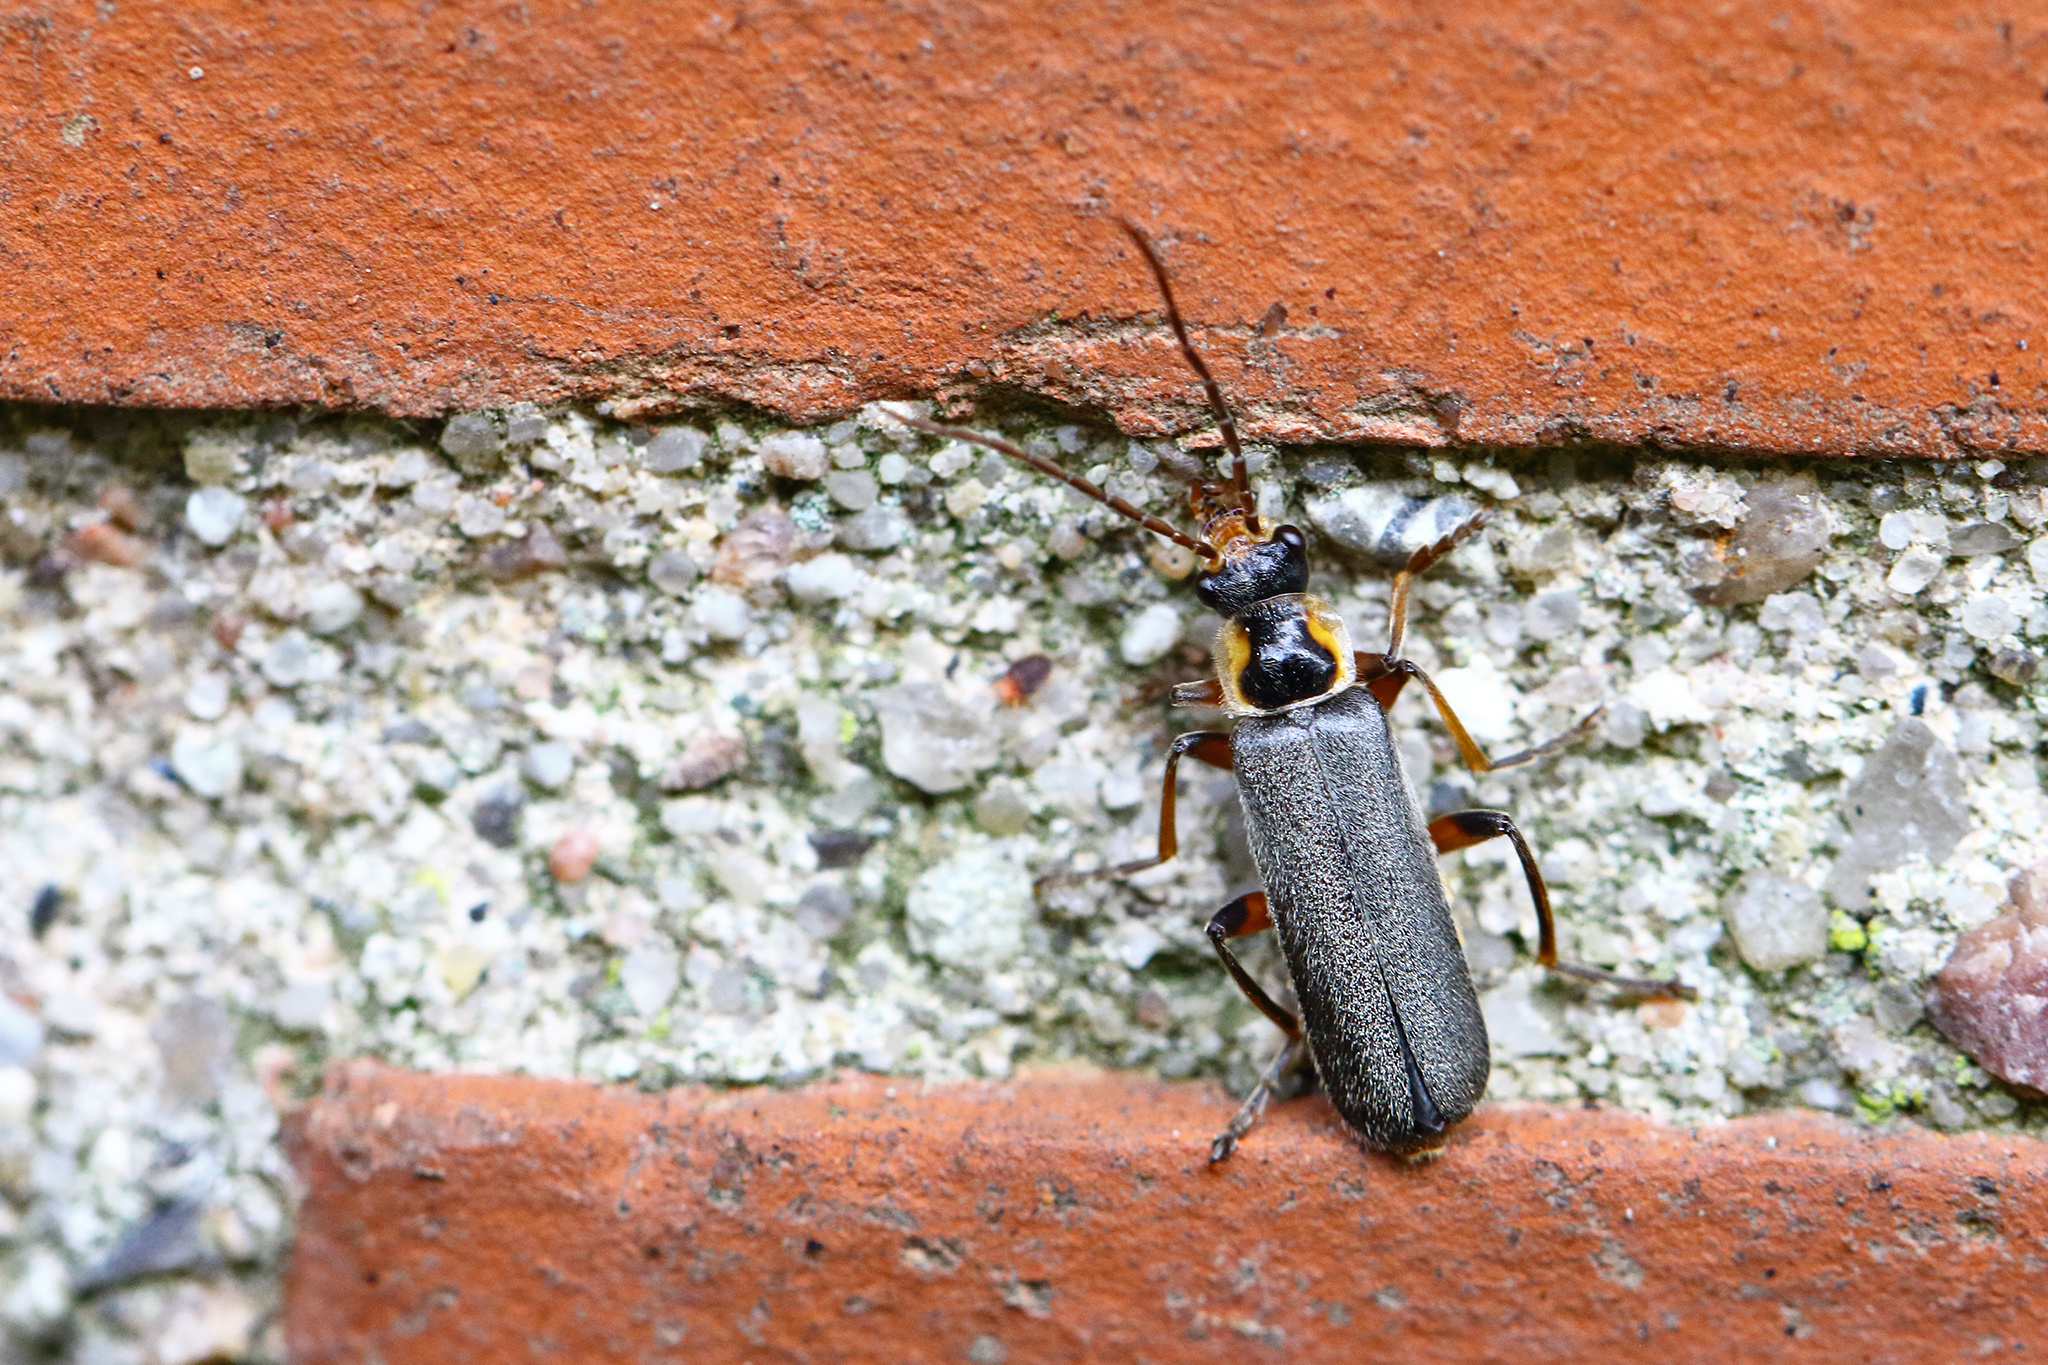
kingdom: Animalia
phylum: Arthropoda
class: Insecta
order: Coleoptera
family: Cantharidae
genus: Cantharis
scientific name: Cantharis nigricans
